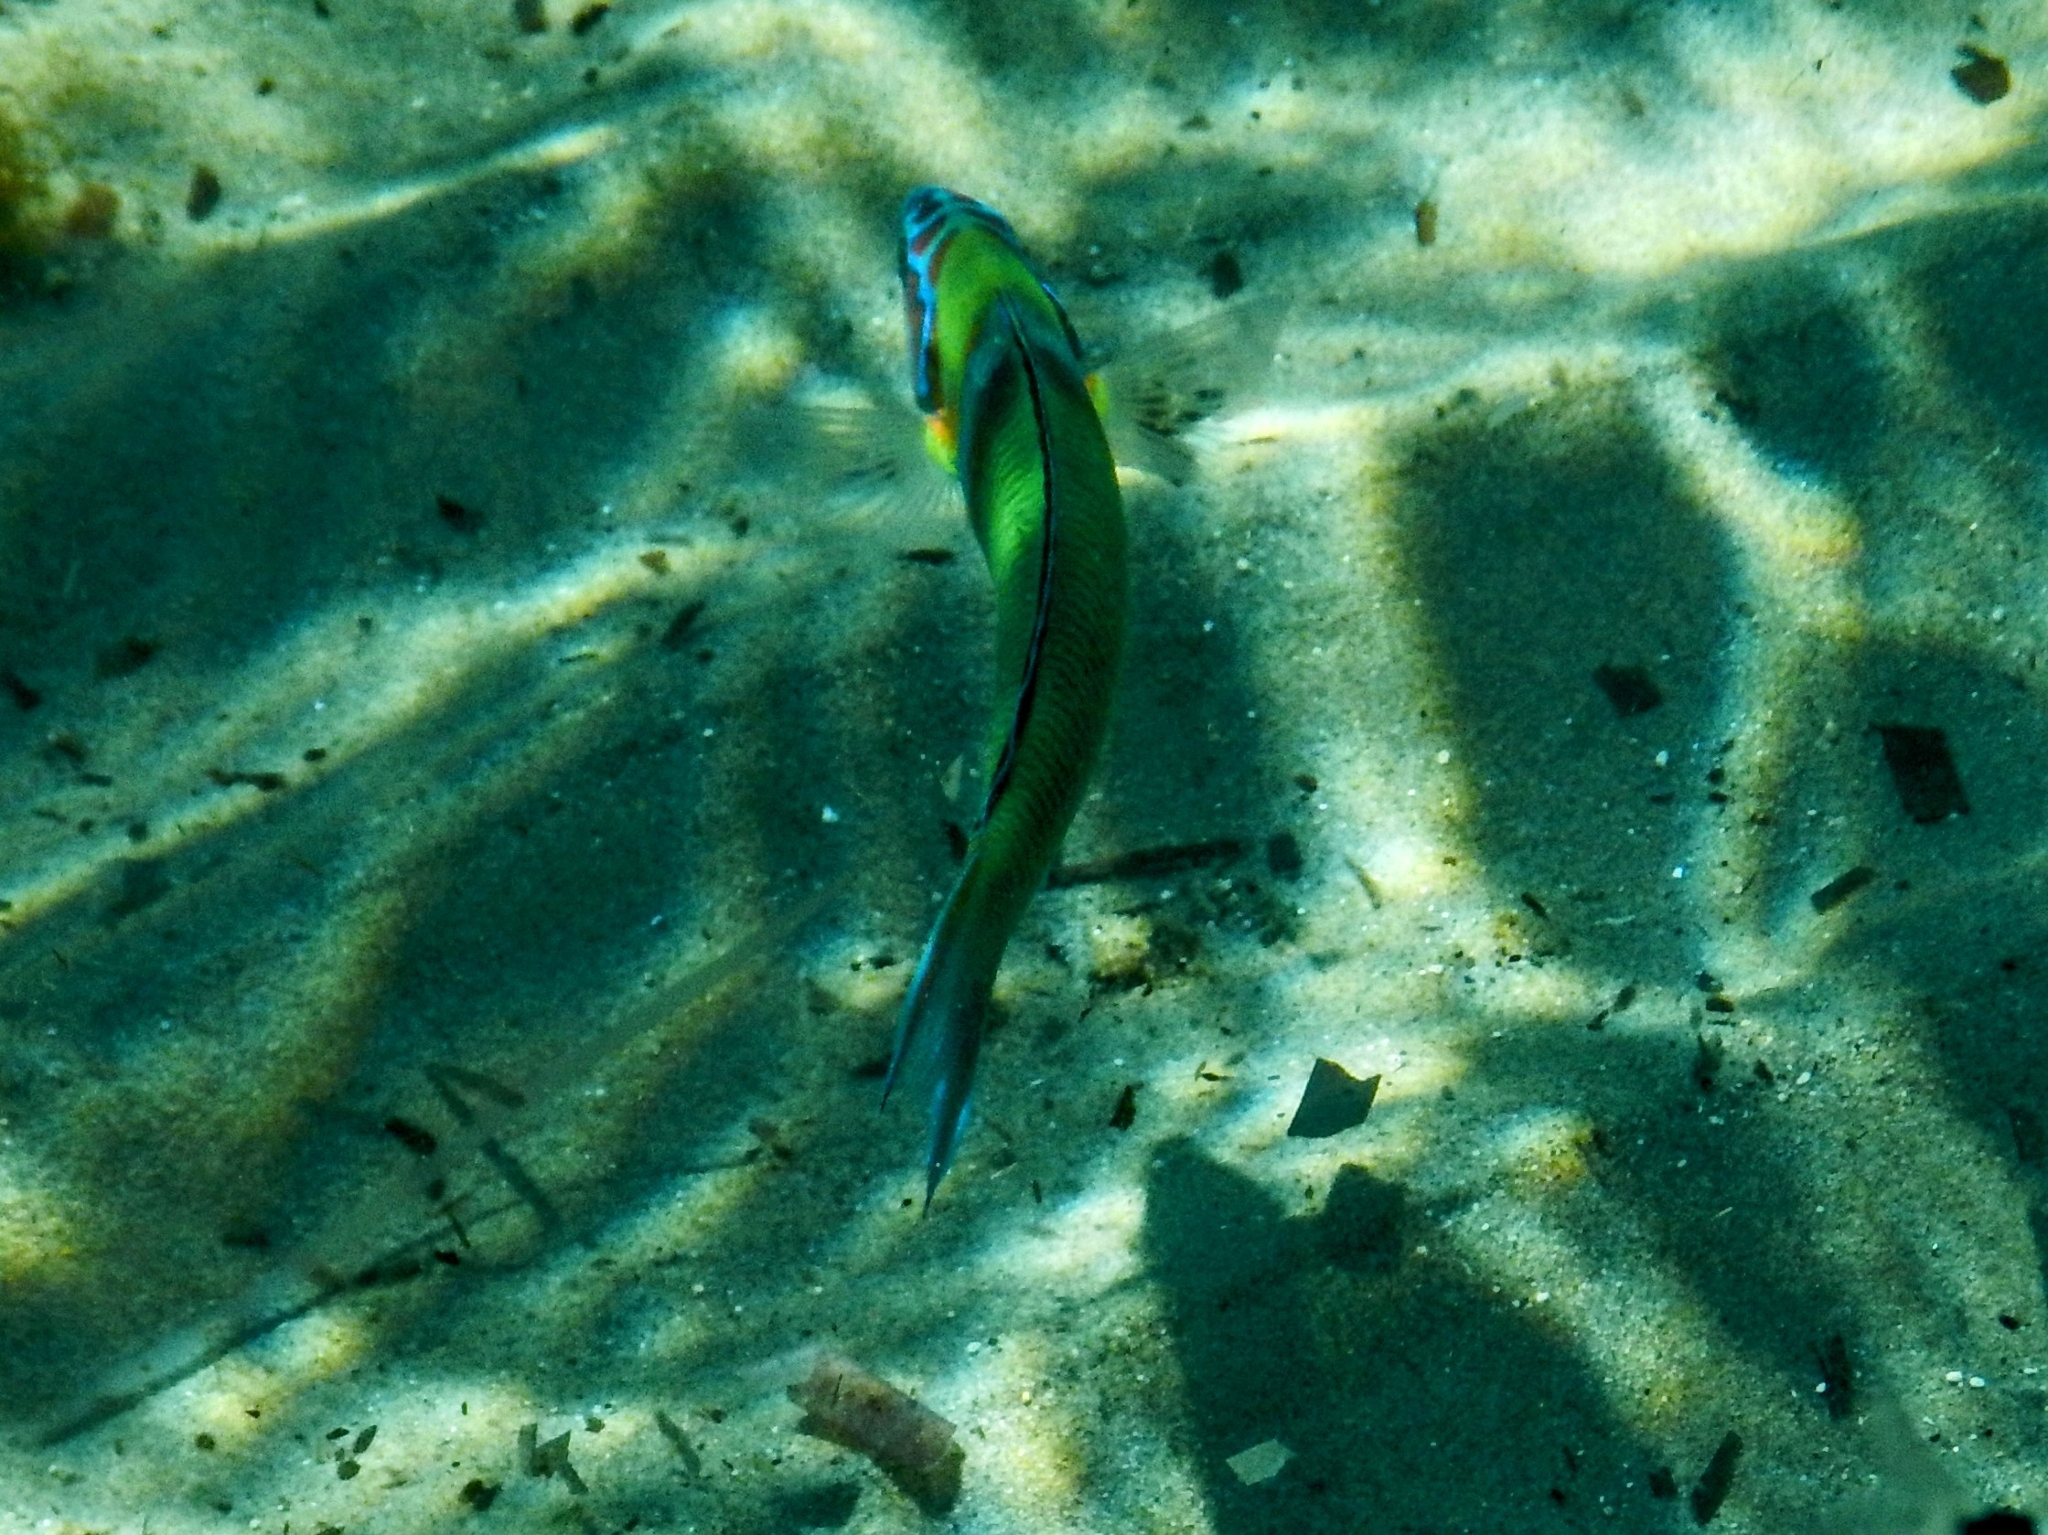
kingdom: Animalia
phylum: Chordata
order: Perciformes
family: Labridae
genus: Thalassoma
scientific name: Thalassoma pavo
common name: Ornate wrasse
